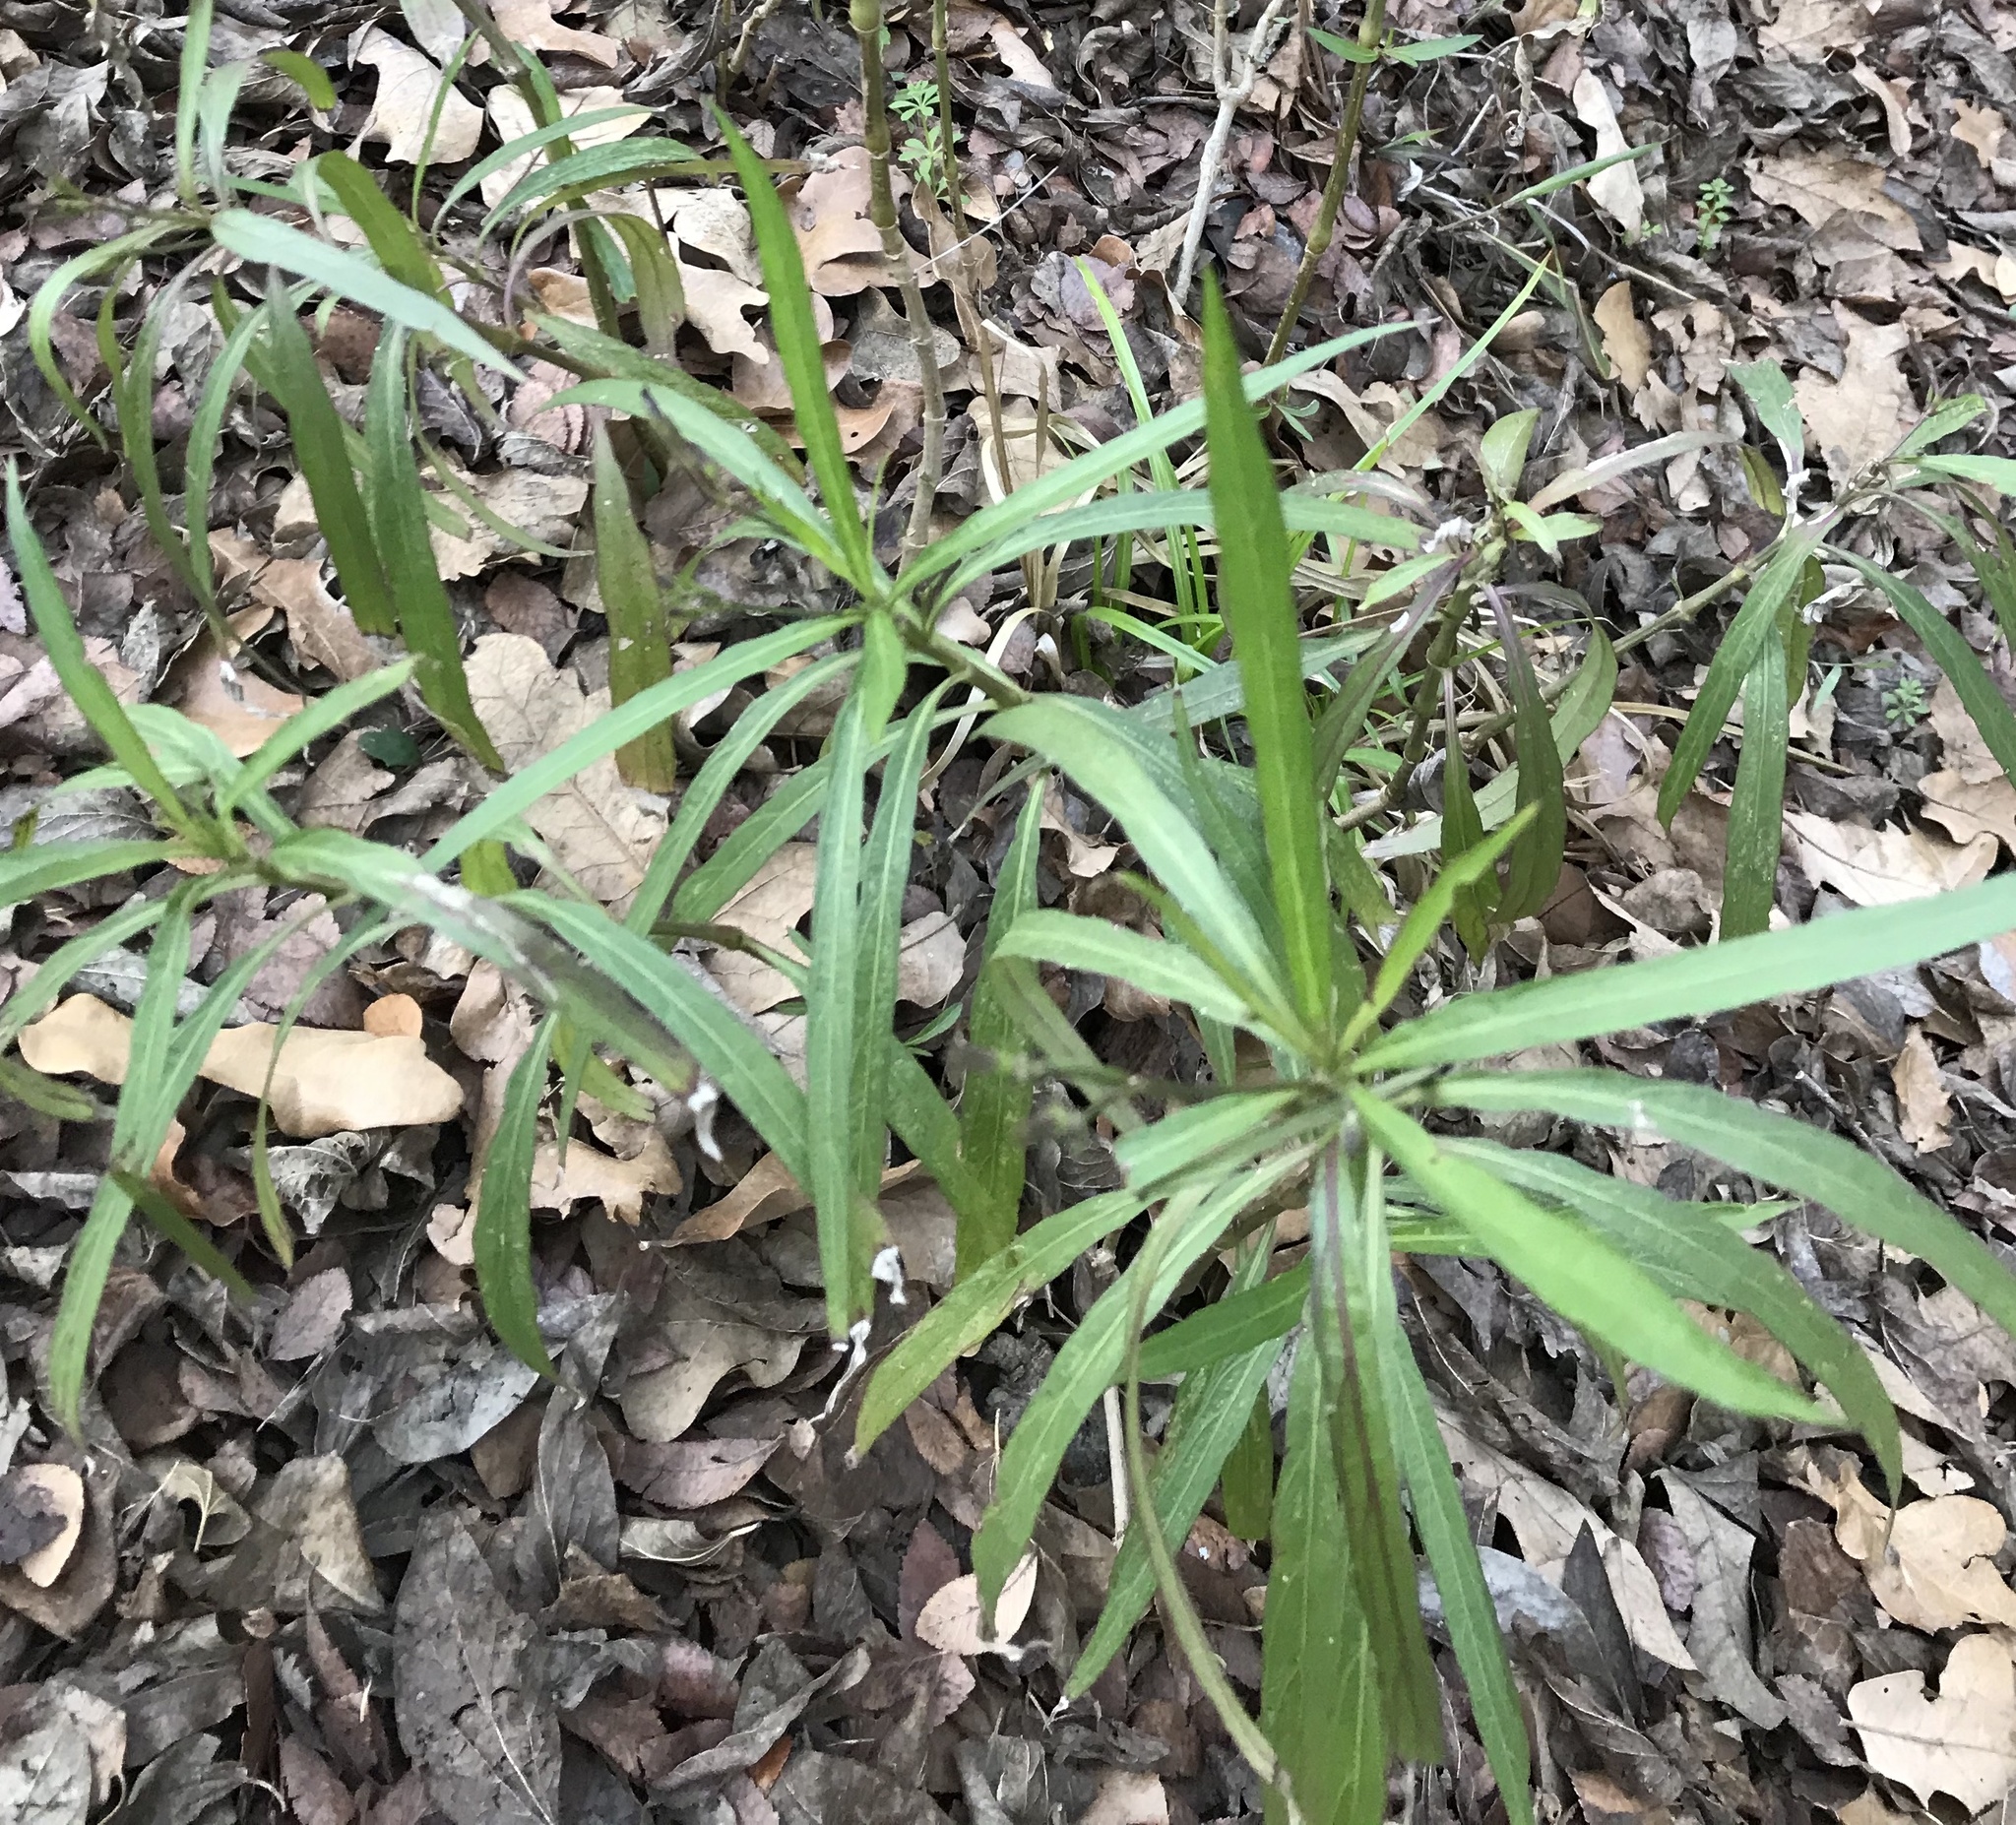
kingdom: Plantae
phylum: Tracheophyta
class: Magnoliopsida
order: Lamiales
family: Acanthaceae
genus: Ruellia
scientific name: Ruellia simplex
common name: Softseed wild petunia
